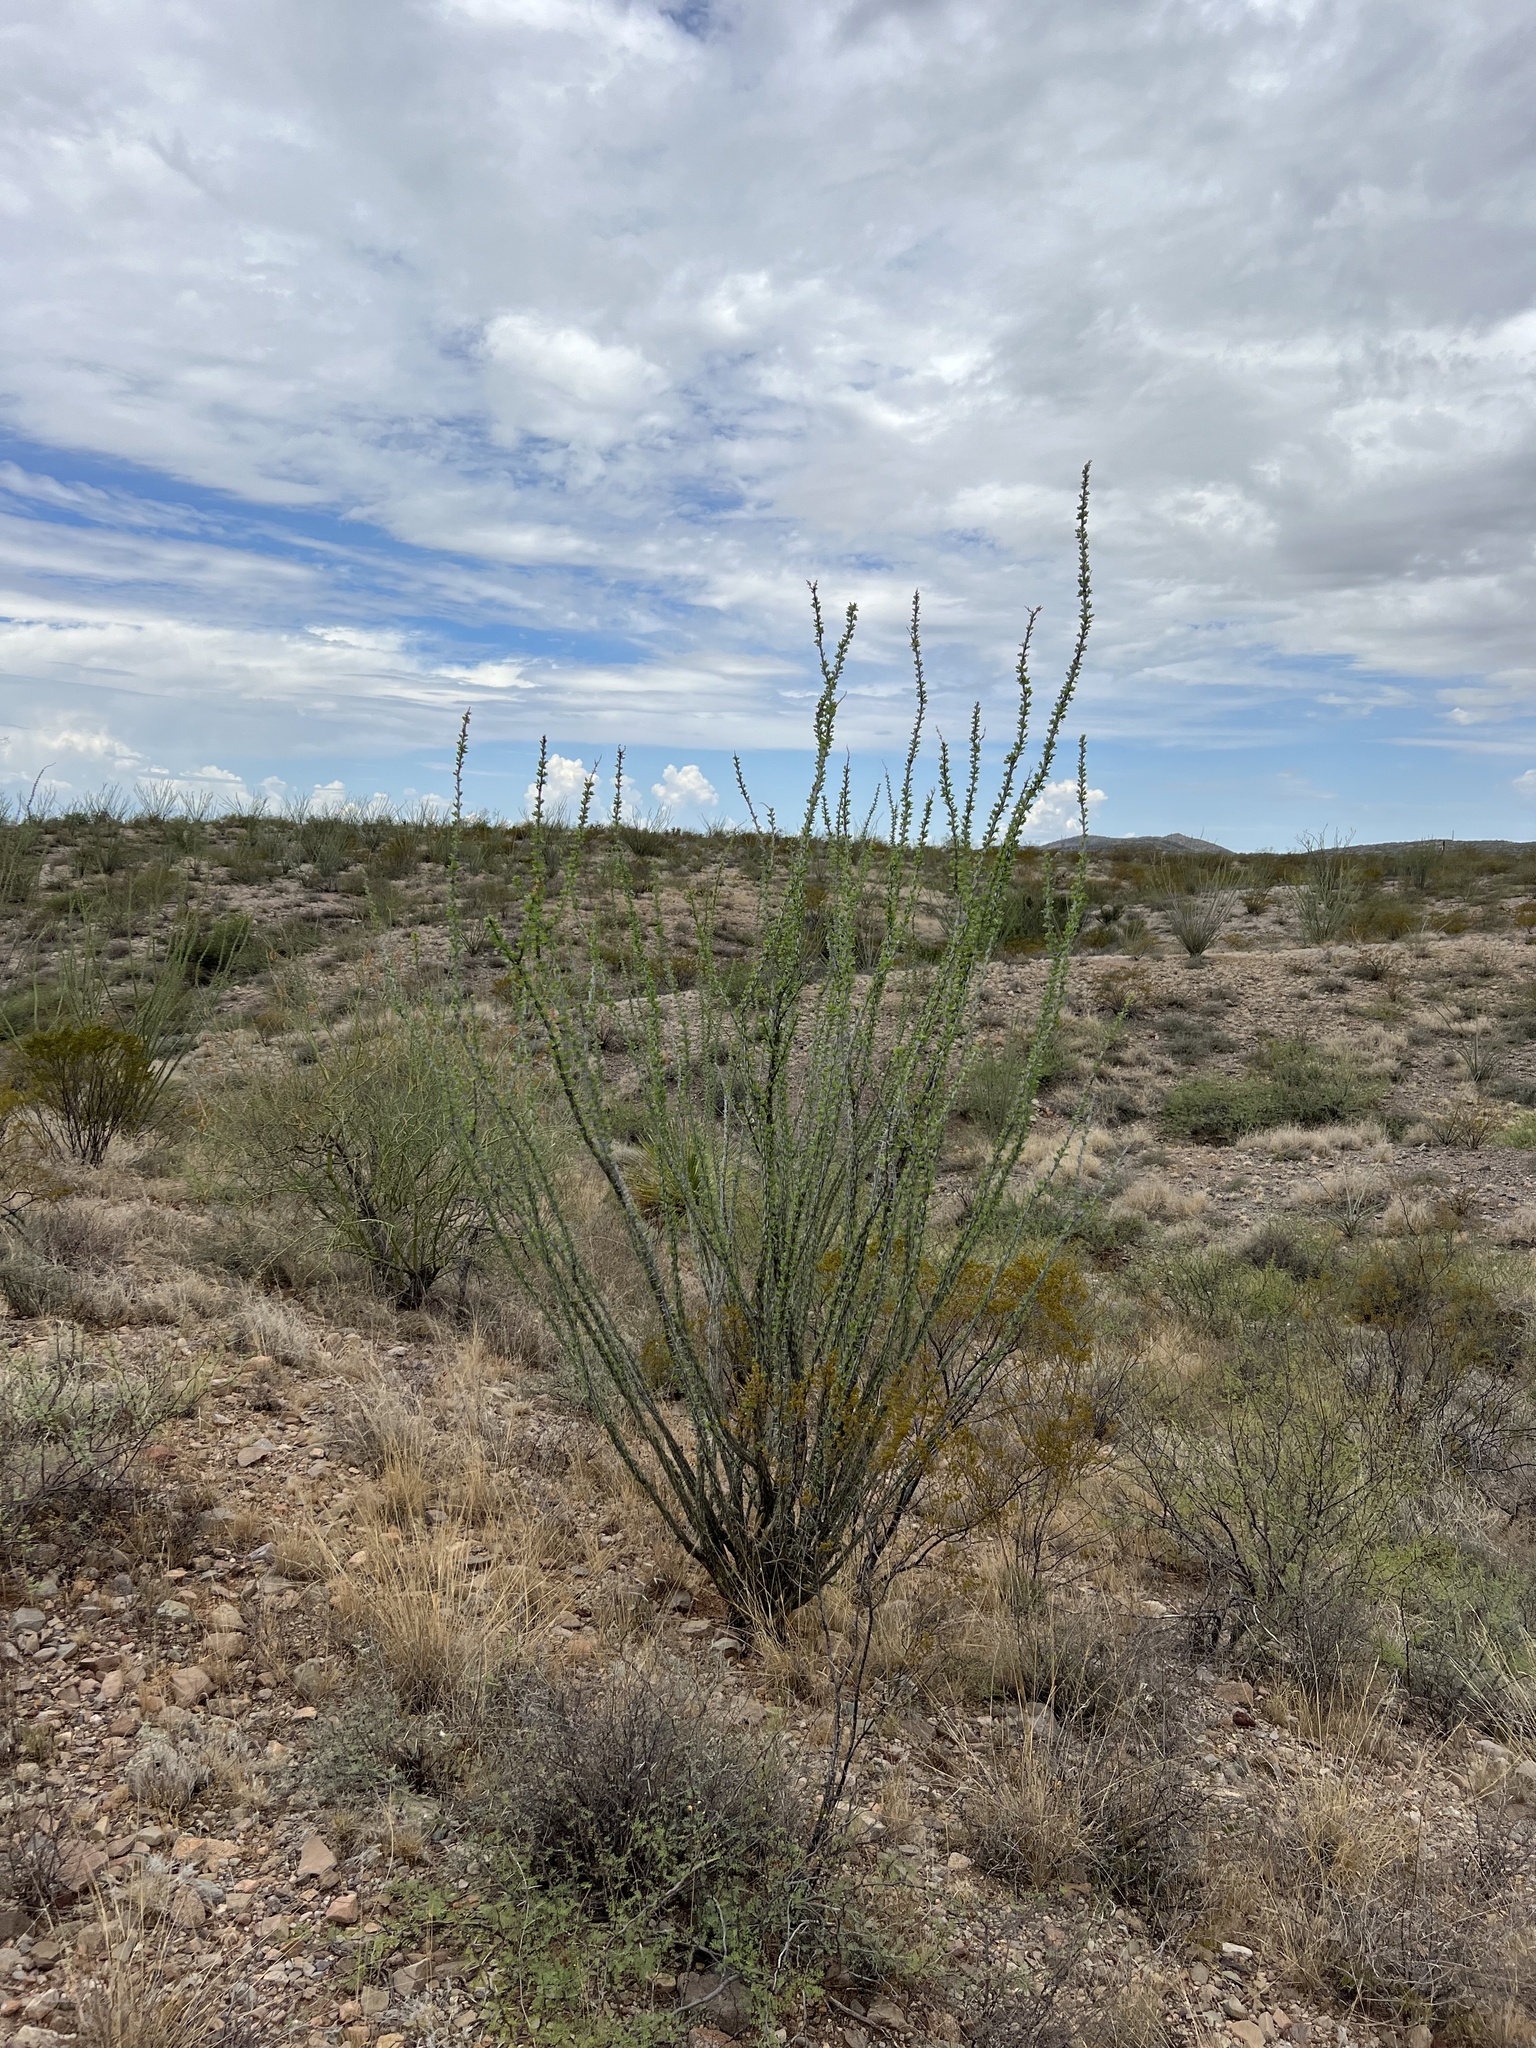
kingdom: Plantae
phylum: Tracheophyta
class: Magnoliopsida
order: Ericales
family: Fouquieriaceae
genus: Fouquieria
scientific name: Fouquieria splendens
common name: Vine-cactus
